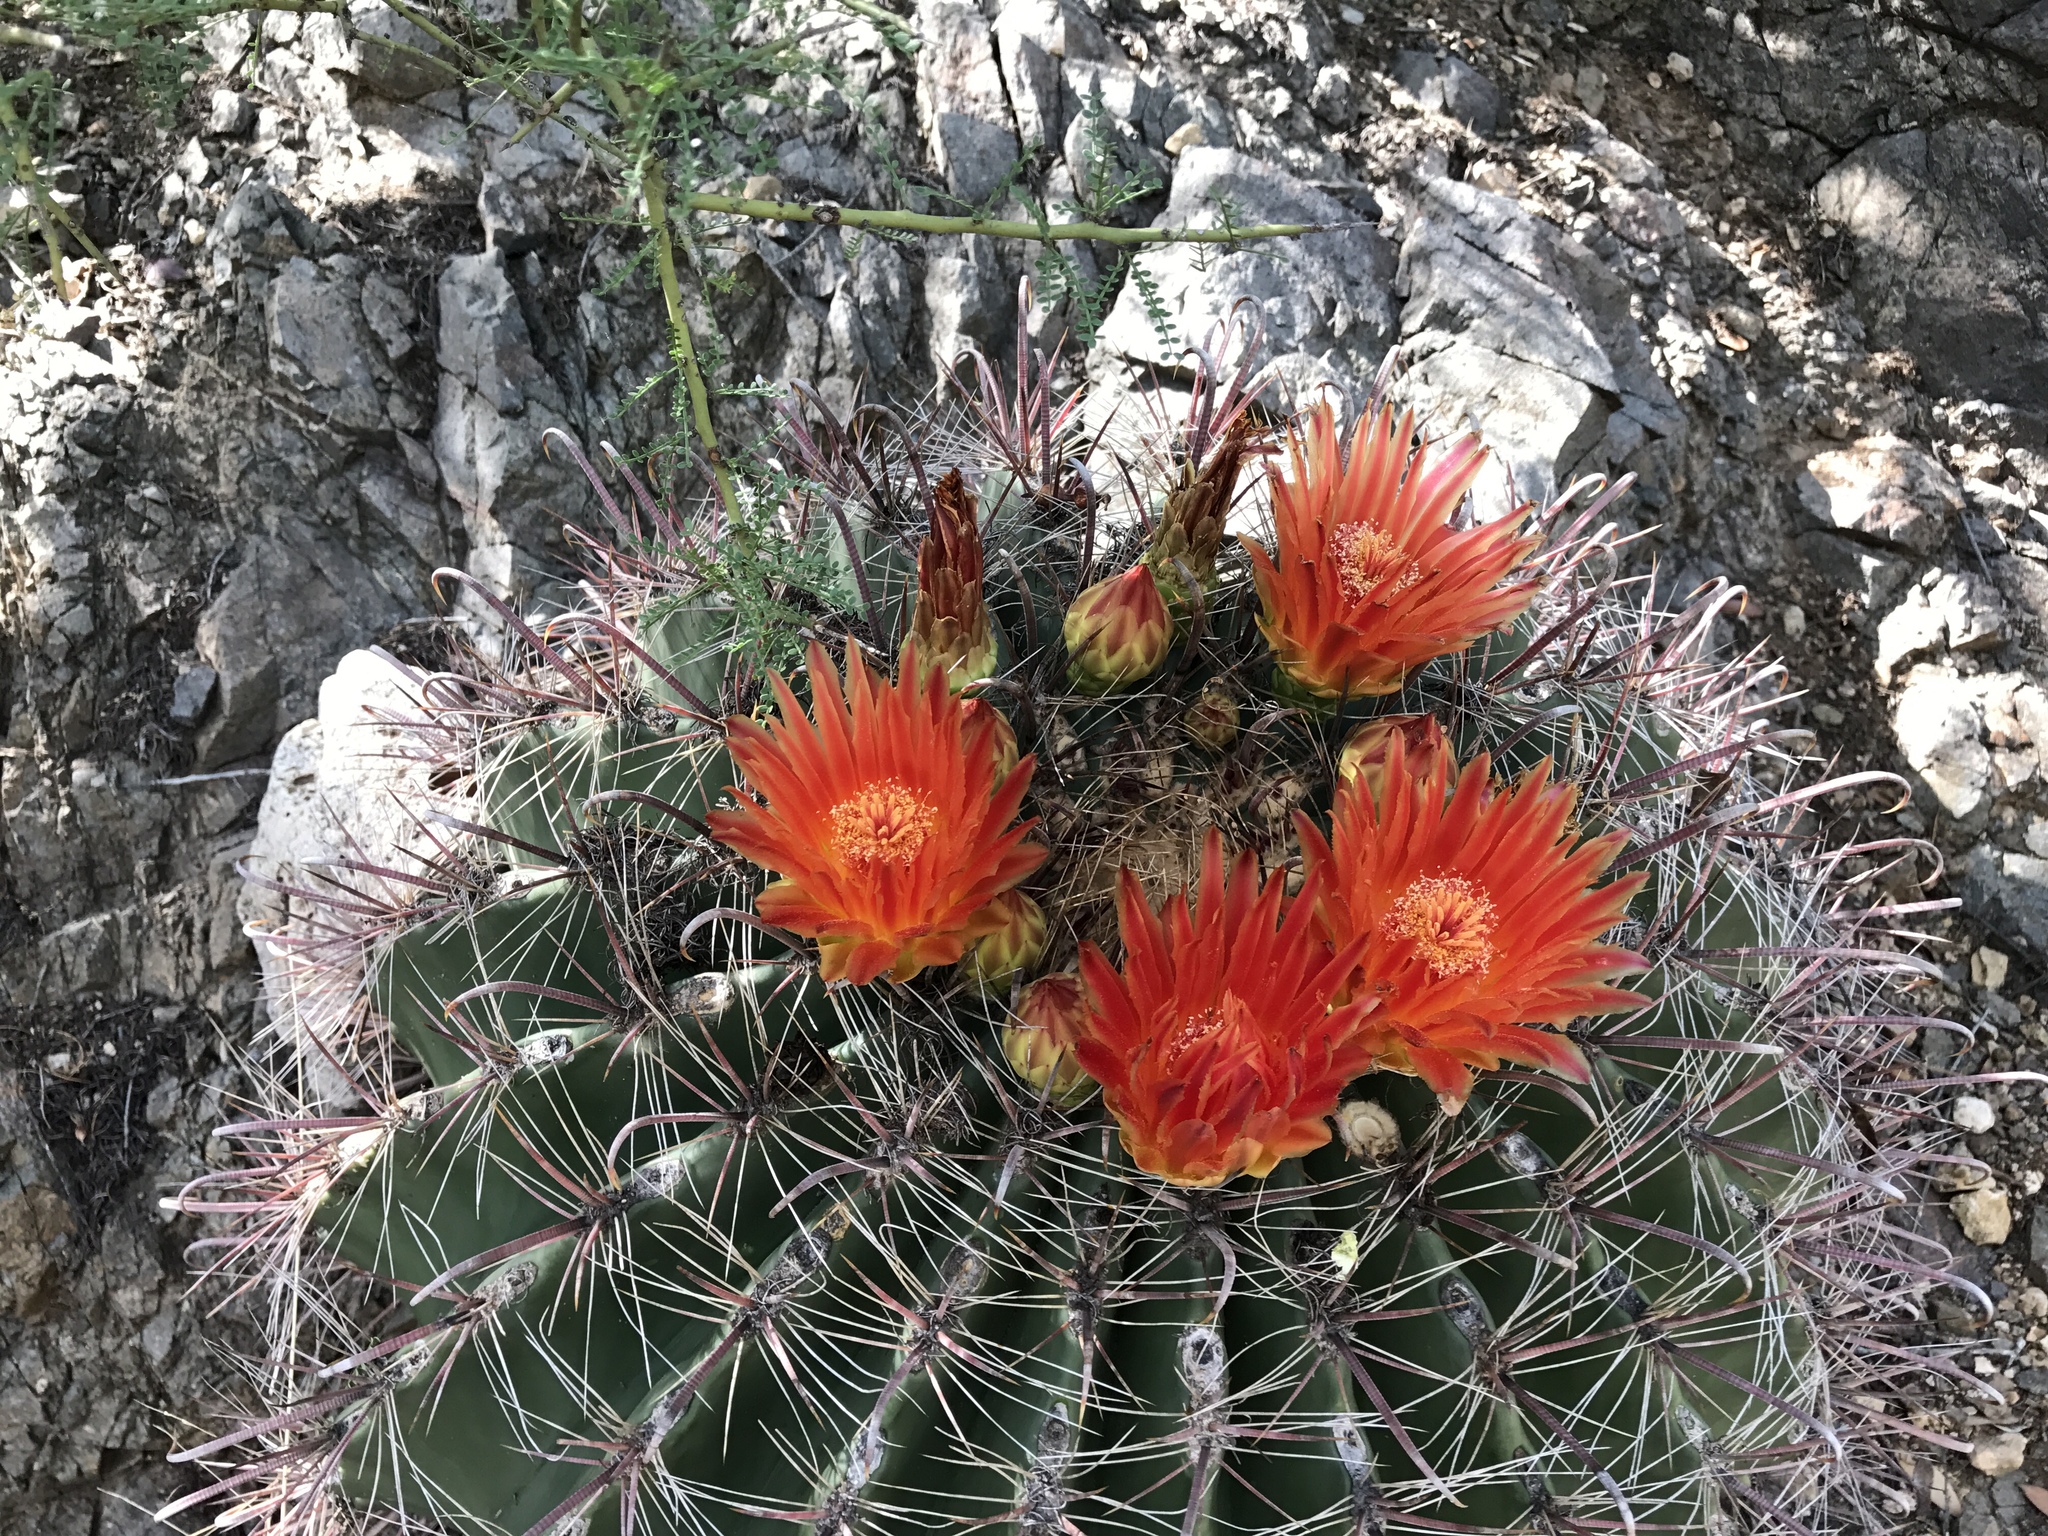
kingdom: Plantae
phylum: Tracheophyta
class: Magnoliopsida
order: Caryophyllales
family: Cactaceae
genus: Ferocactus
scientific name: Ferocactus wislizeni
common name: Candy barrel cactus
